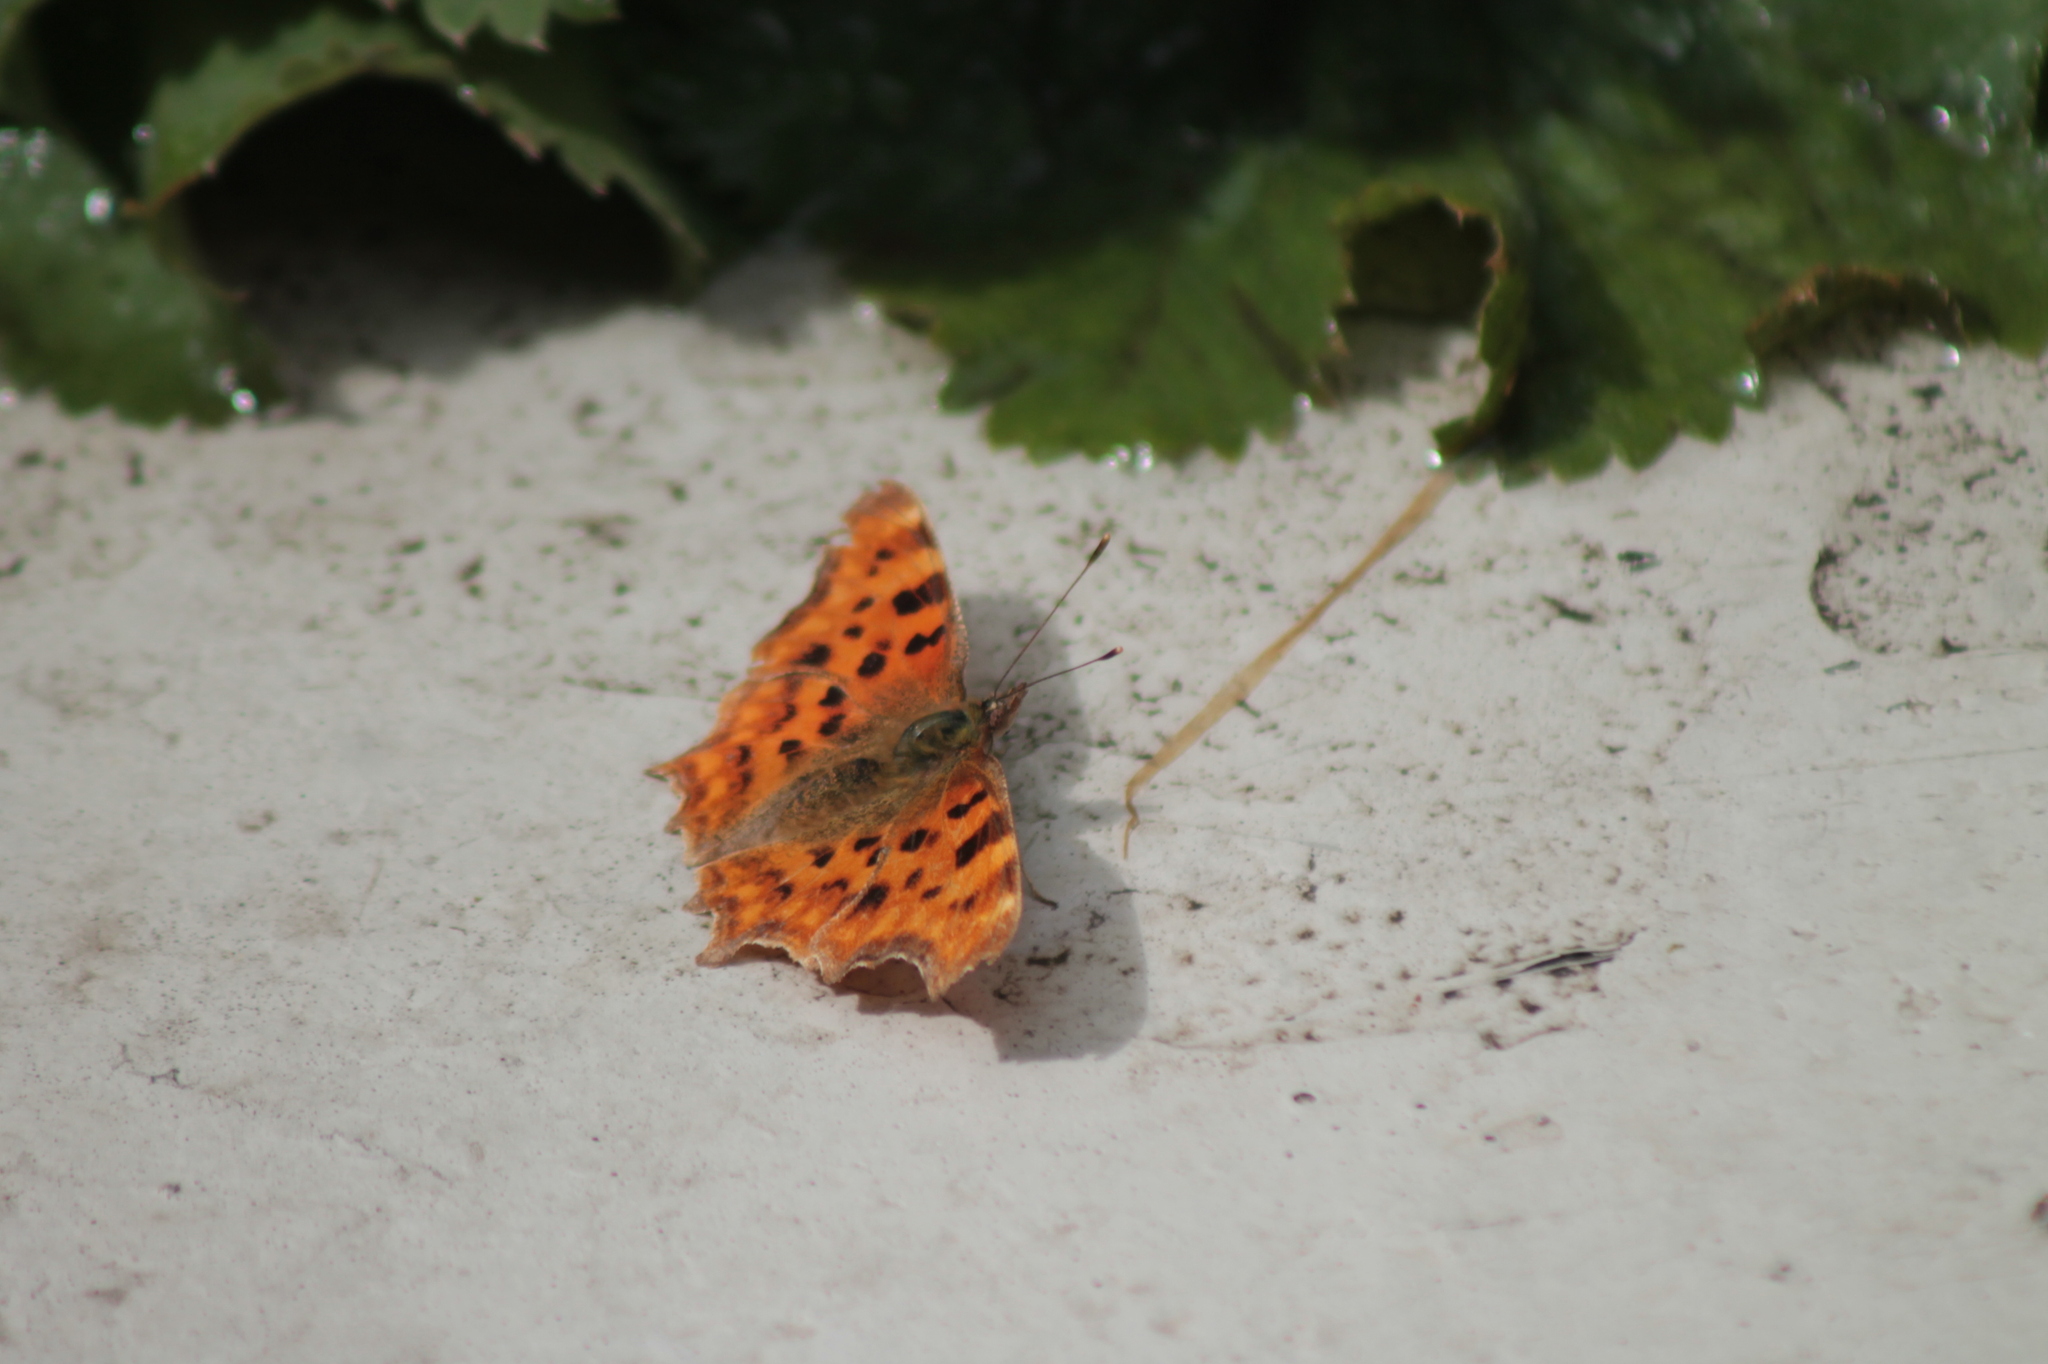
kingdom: Animalia
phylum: Arthropoda
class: Insecta
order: Lepidoptera
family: Nymphalidae
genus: Polygonia
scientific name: Polygonia c-album
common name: Comma
